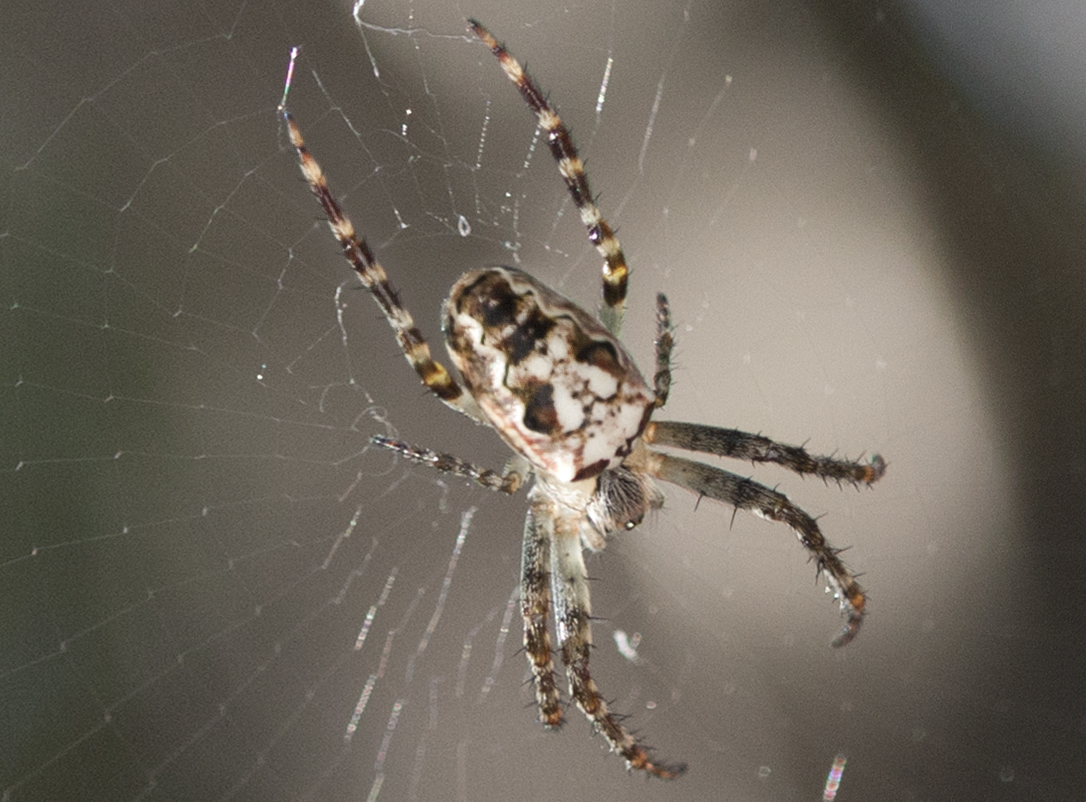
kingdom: Animalia
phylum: Arthropoda
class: Arachnida
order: Araneae
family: Araneidae
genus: Plebs
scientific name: Plebs eburnus
